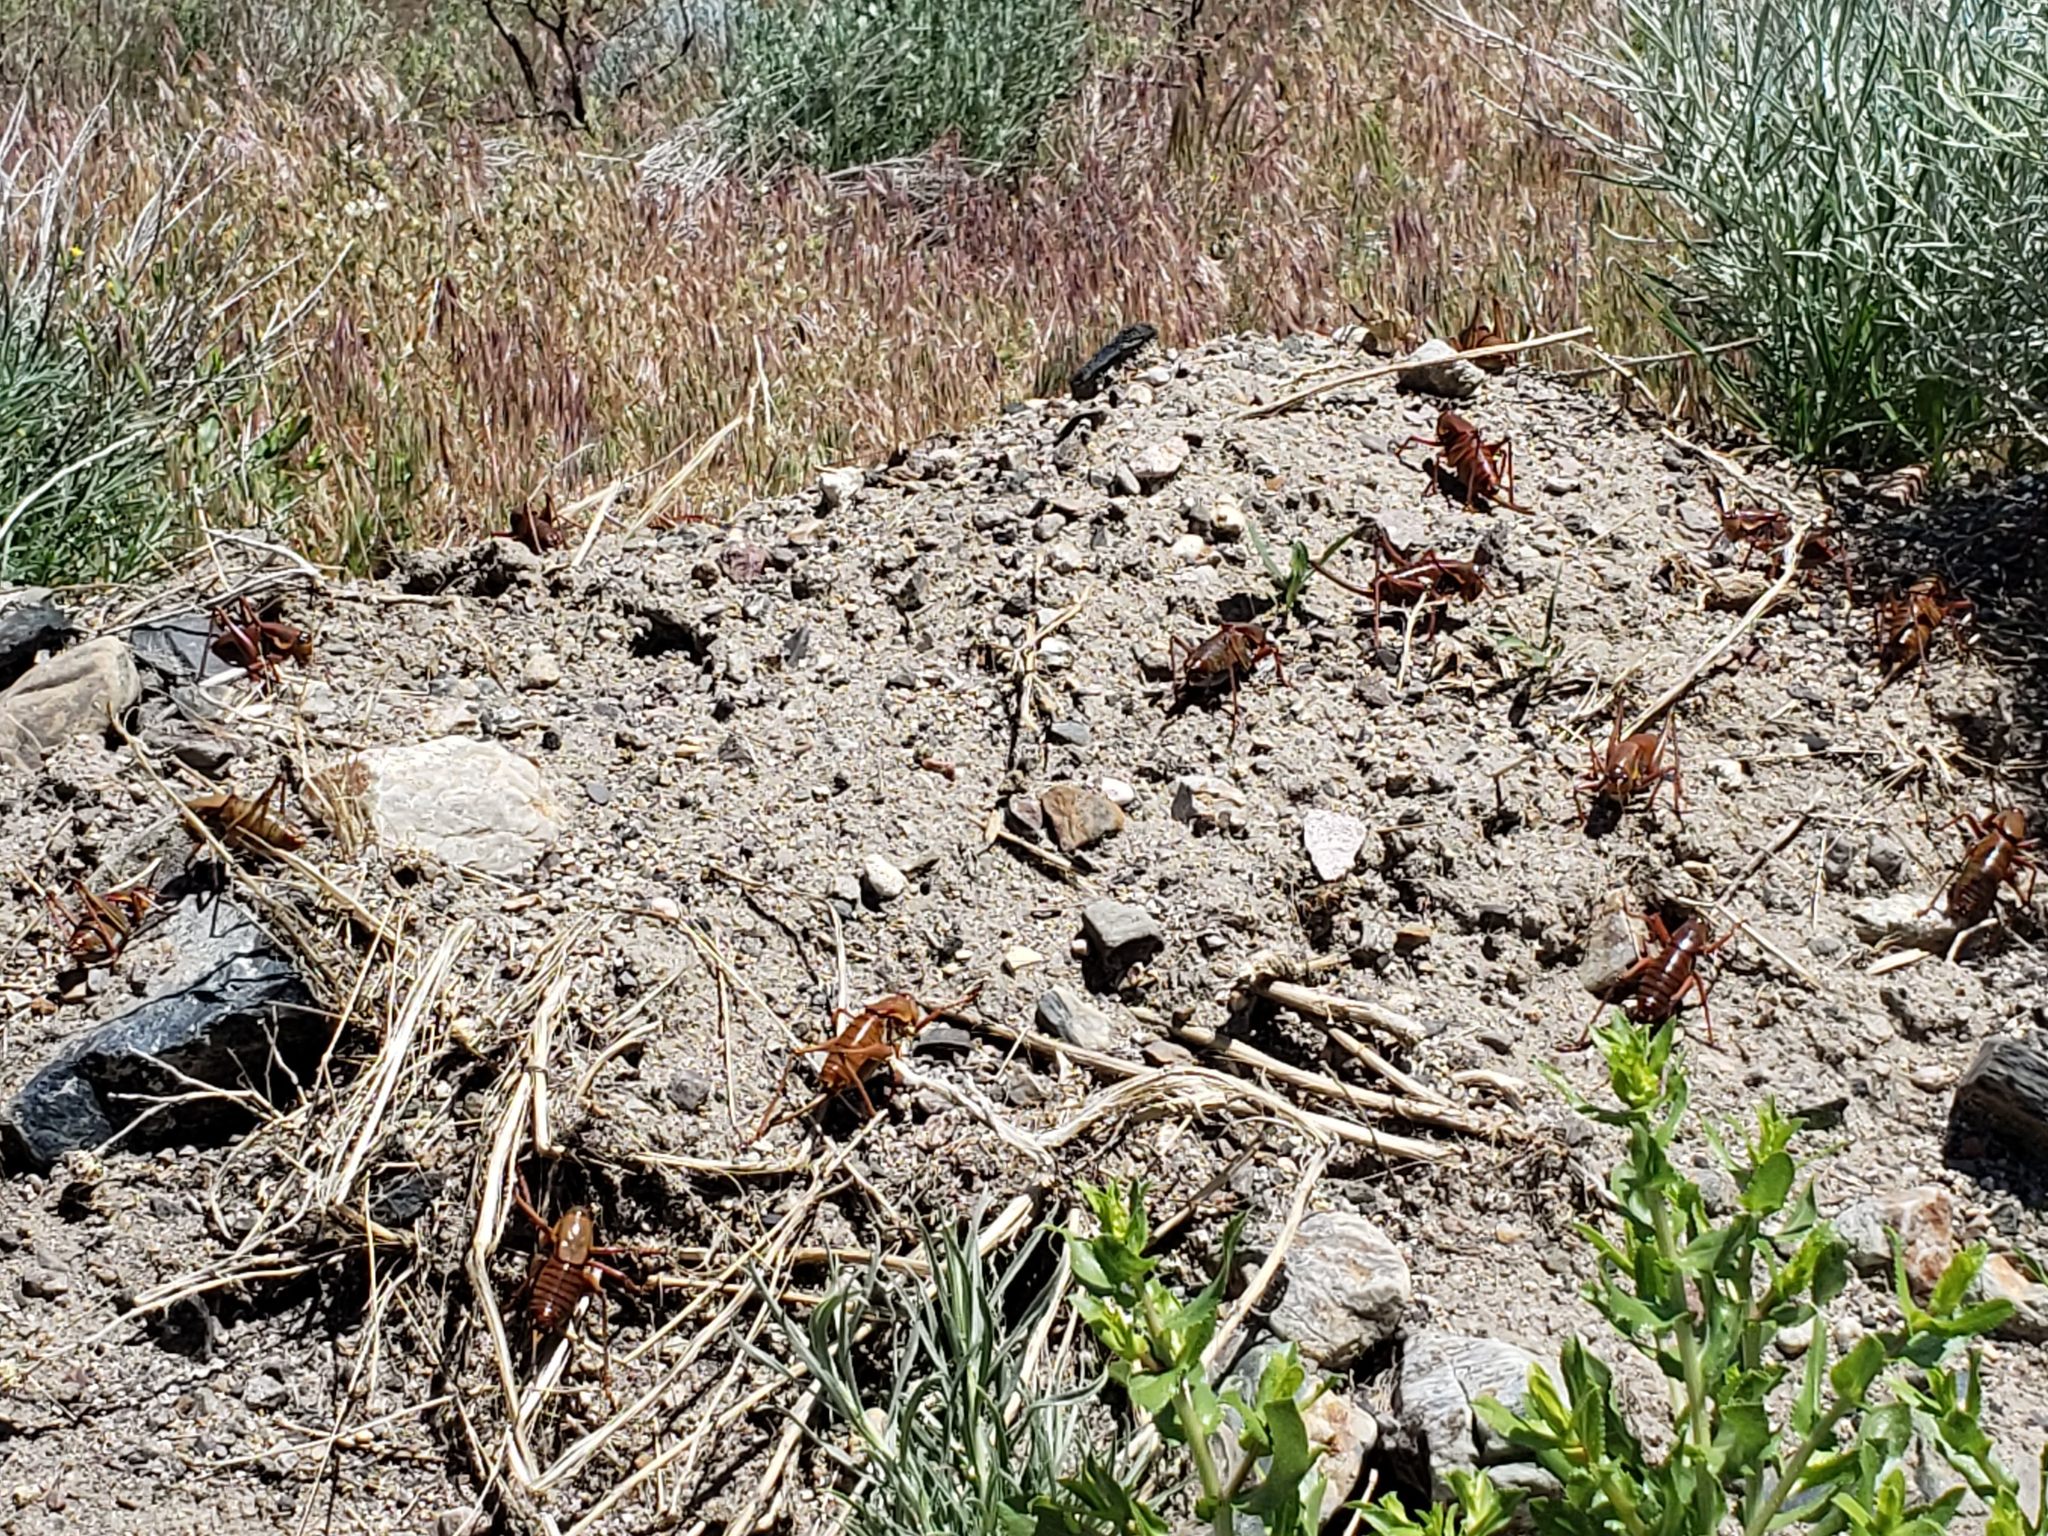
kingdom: Animalia
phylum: Arthropoda
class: Insecta
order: Orthoptera
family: Tettigoniidae
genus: Anabrus
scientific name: Anabrus simplex
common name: Mormon cricket
